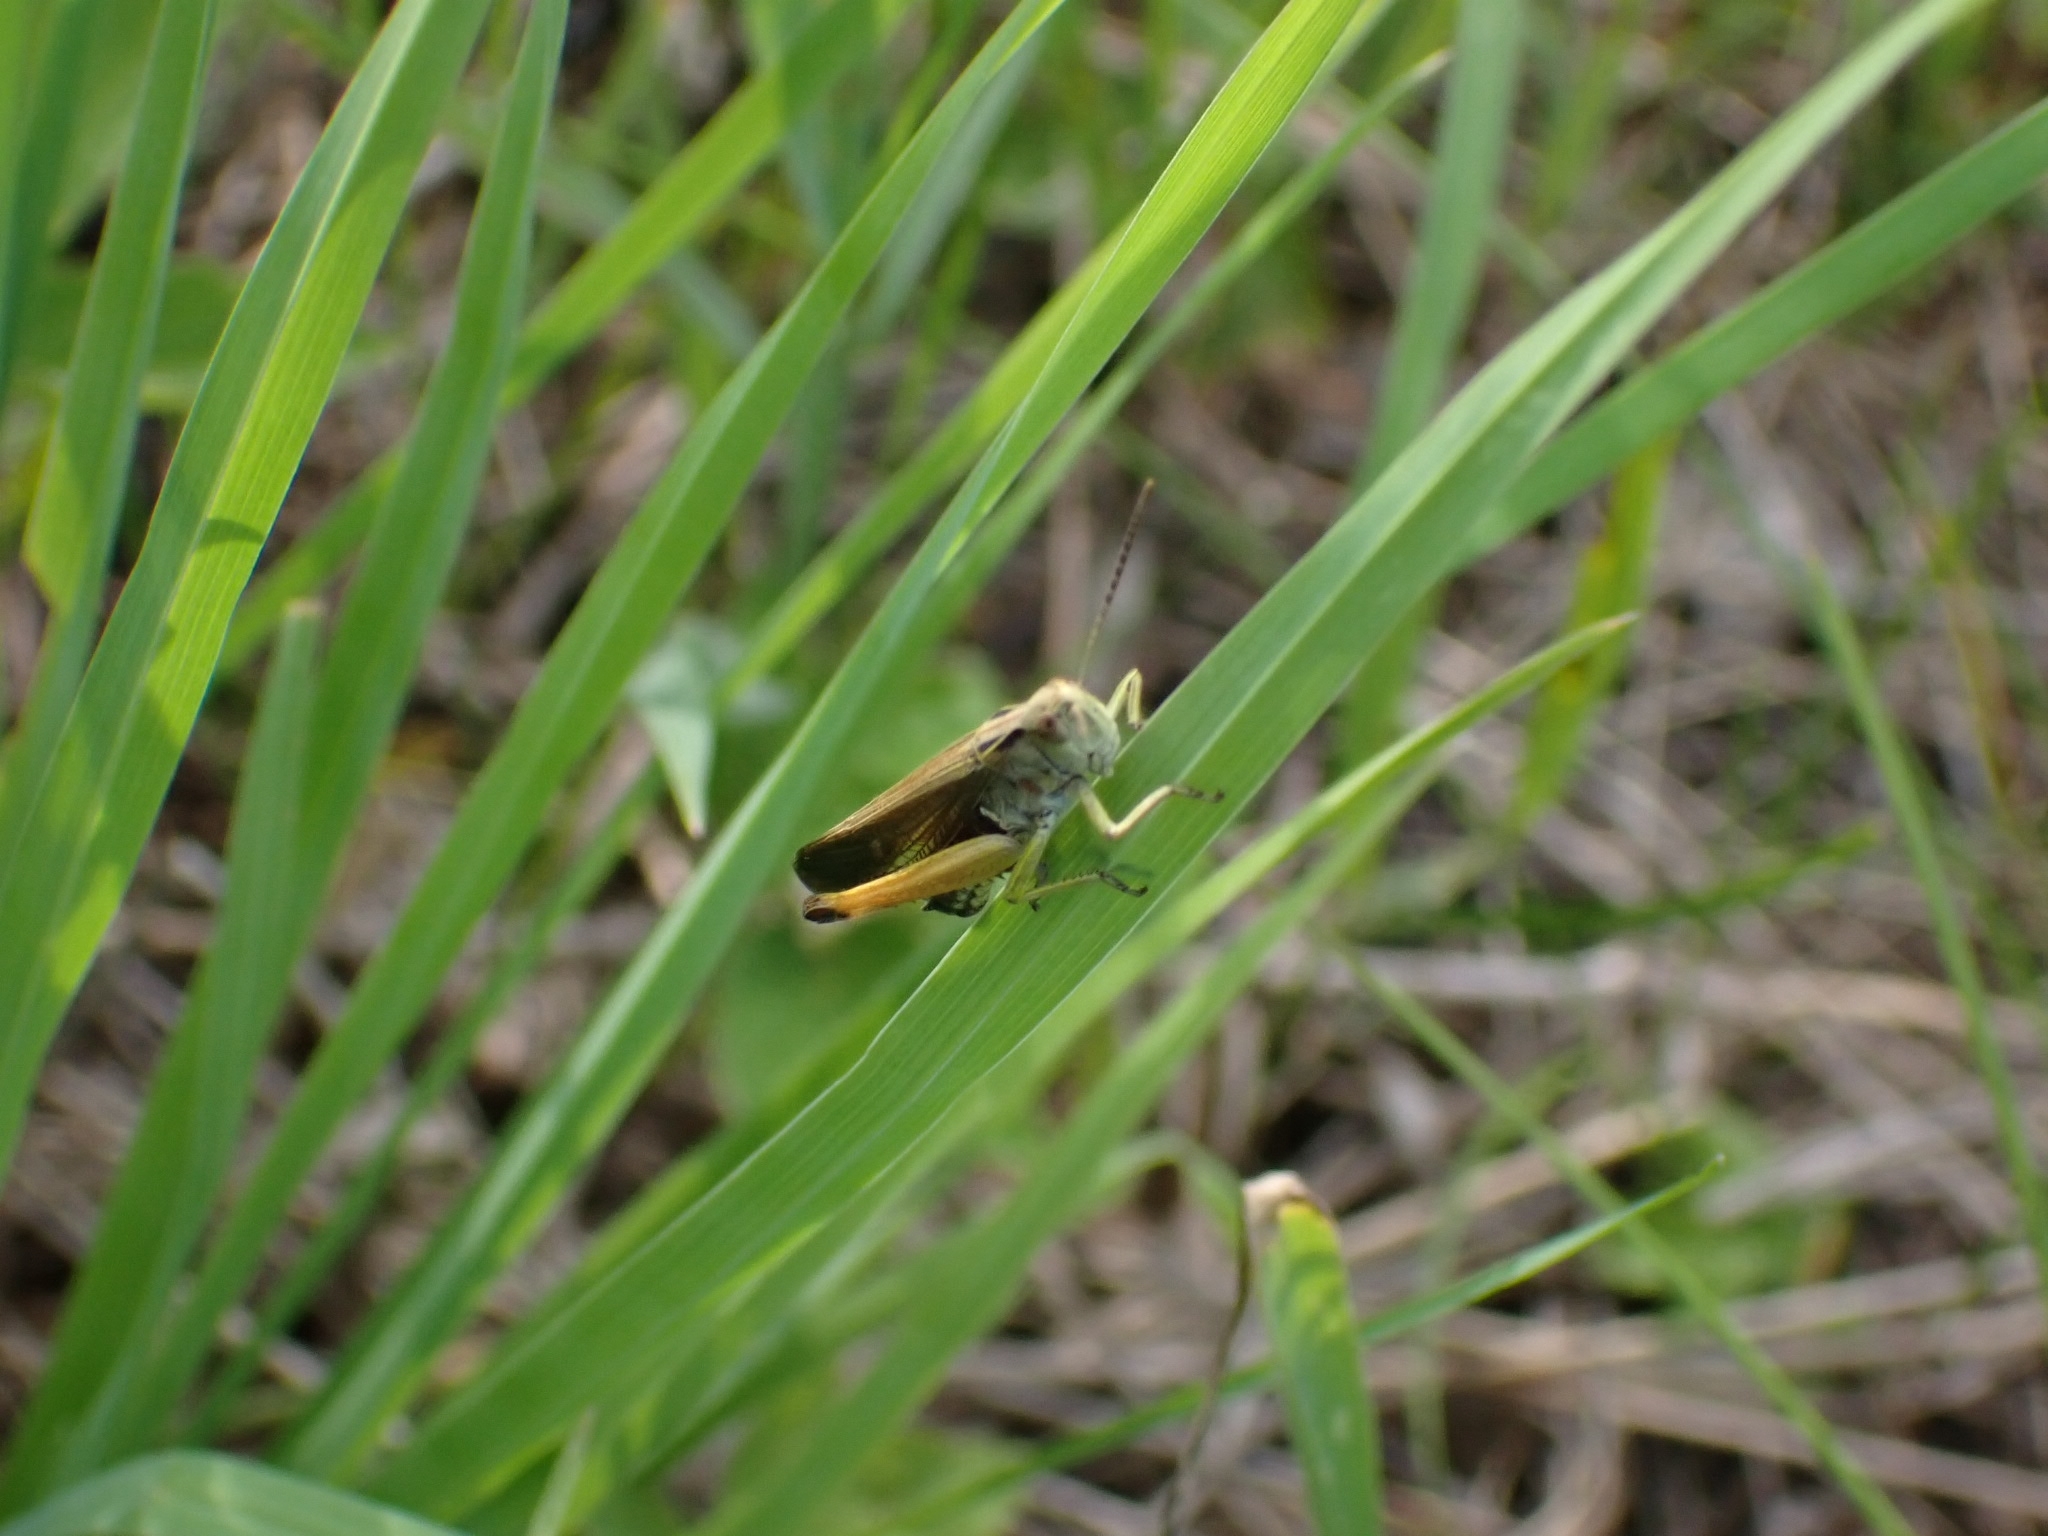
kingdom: Animalia
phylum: Arthropoda
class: Insecta
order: Orthoptera
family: Acrididae
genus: Omocestus
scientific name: Omocestus viridulus
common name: Common green grasshopper
